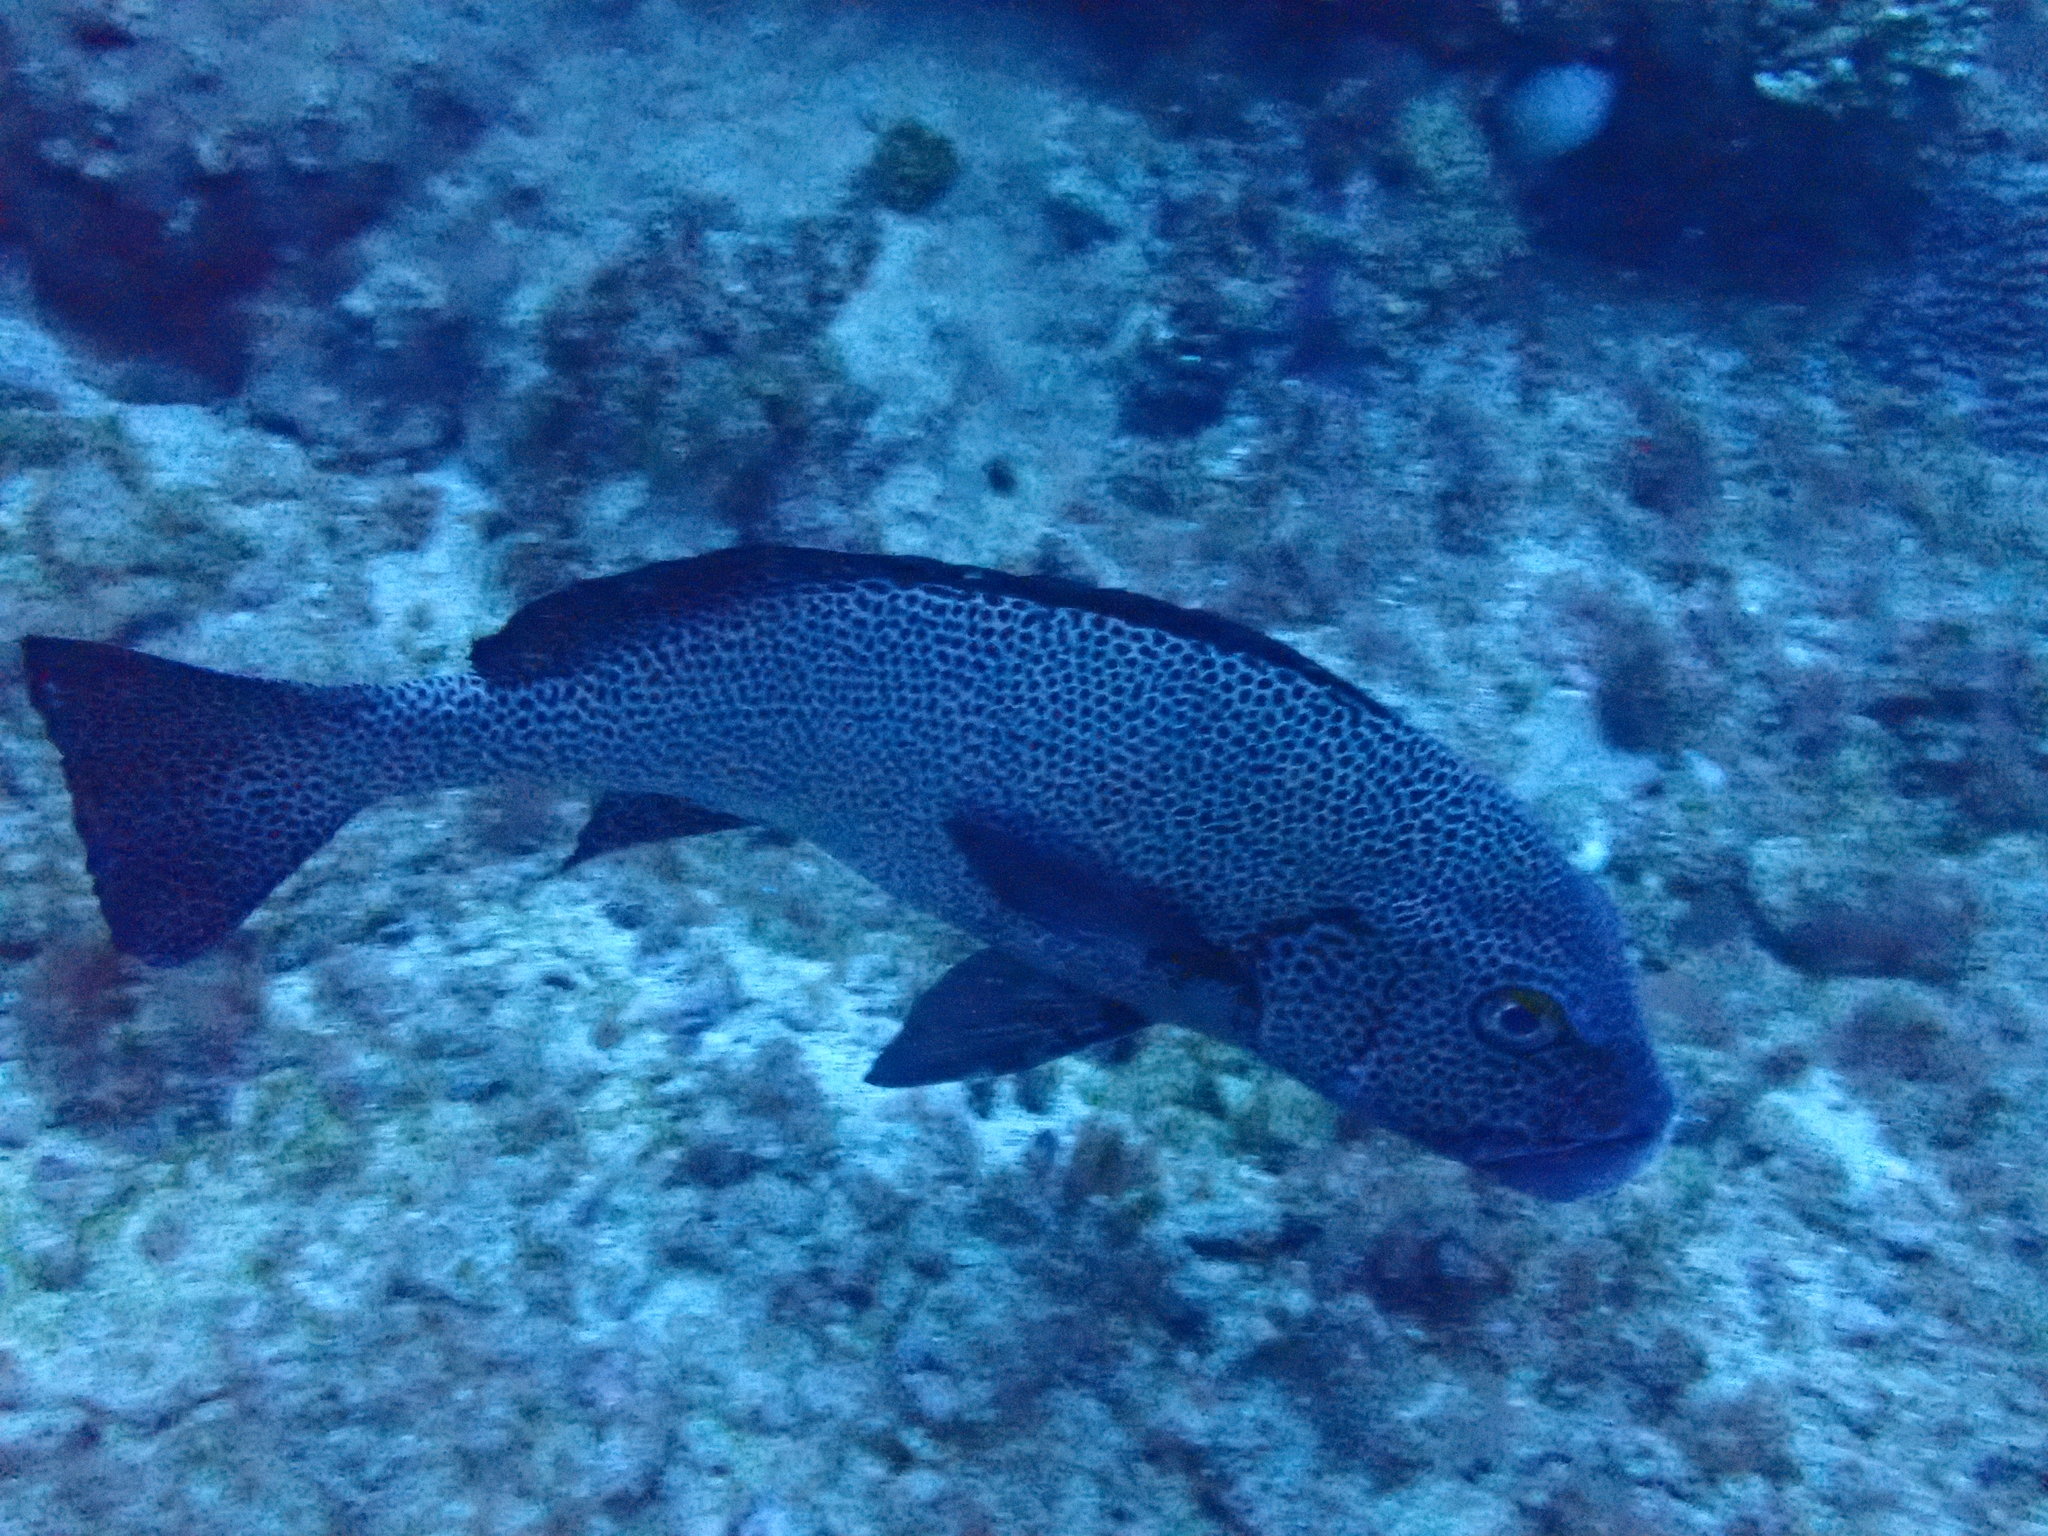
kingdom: Animalia
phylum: Chordata
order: Perciformes
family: Haemulidae
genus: Plectorhinchus
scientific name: Plectorhinchus picus
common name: Spotted sweetlips
